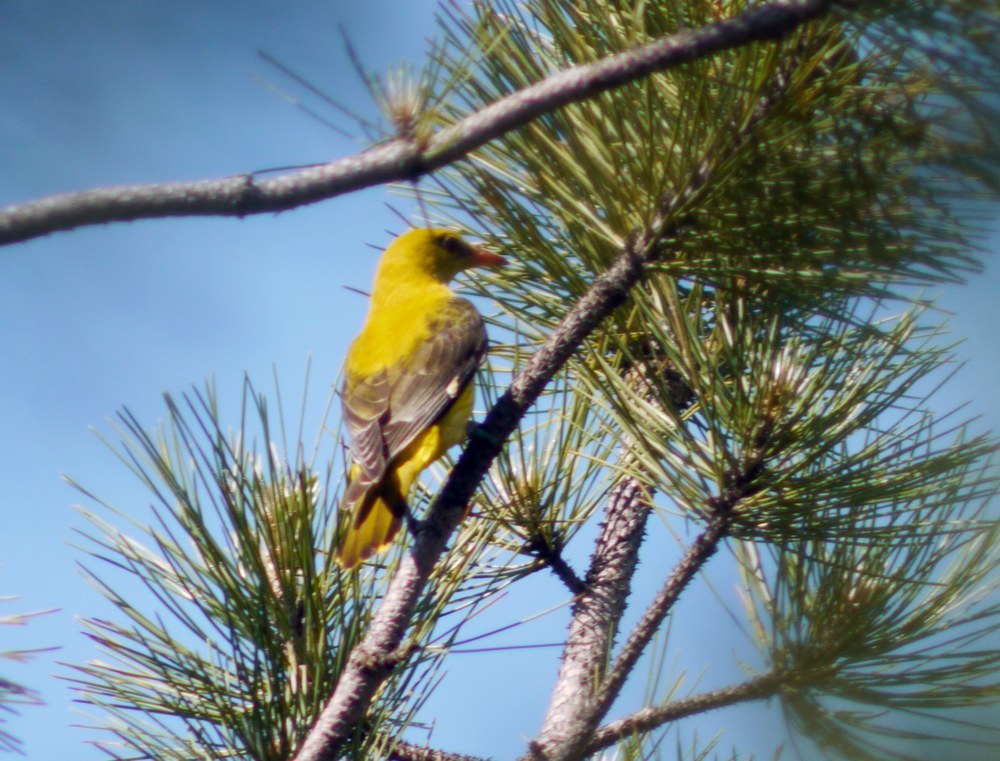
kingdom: Animalia
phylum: Chordata
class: Aves
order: Passeriformes
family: Oriolidae
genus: Oriolus
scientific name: Oriolus oriolus
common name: Eurasian golden oriole
